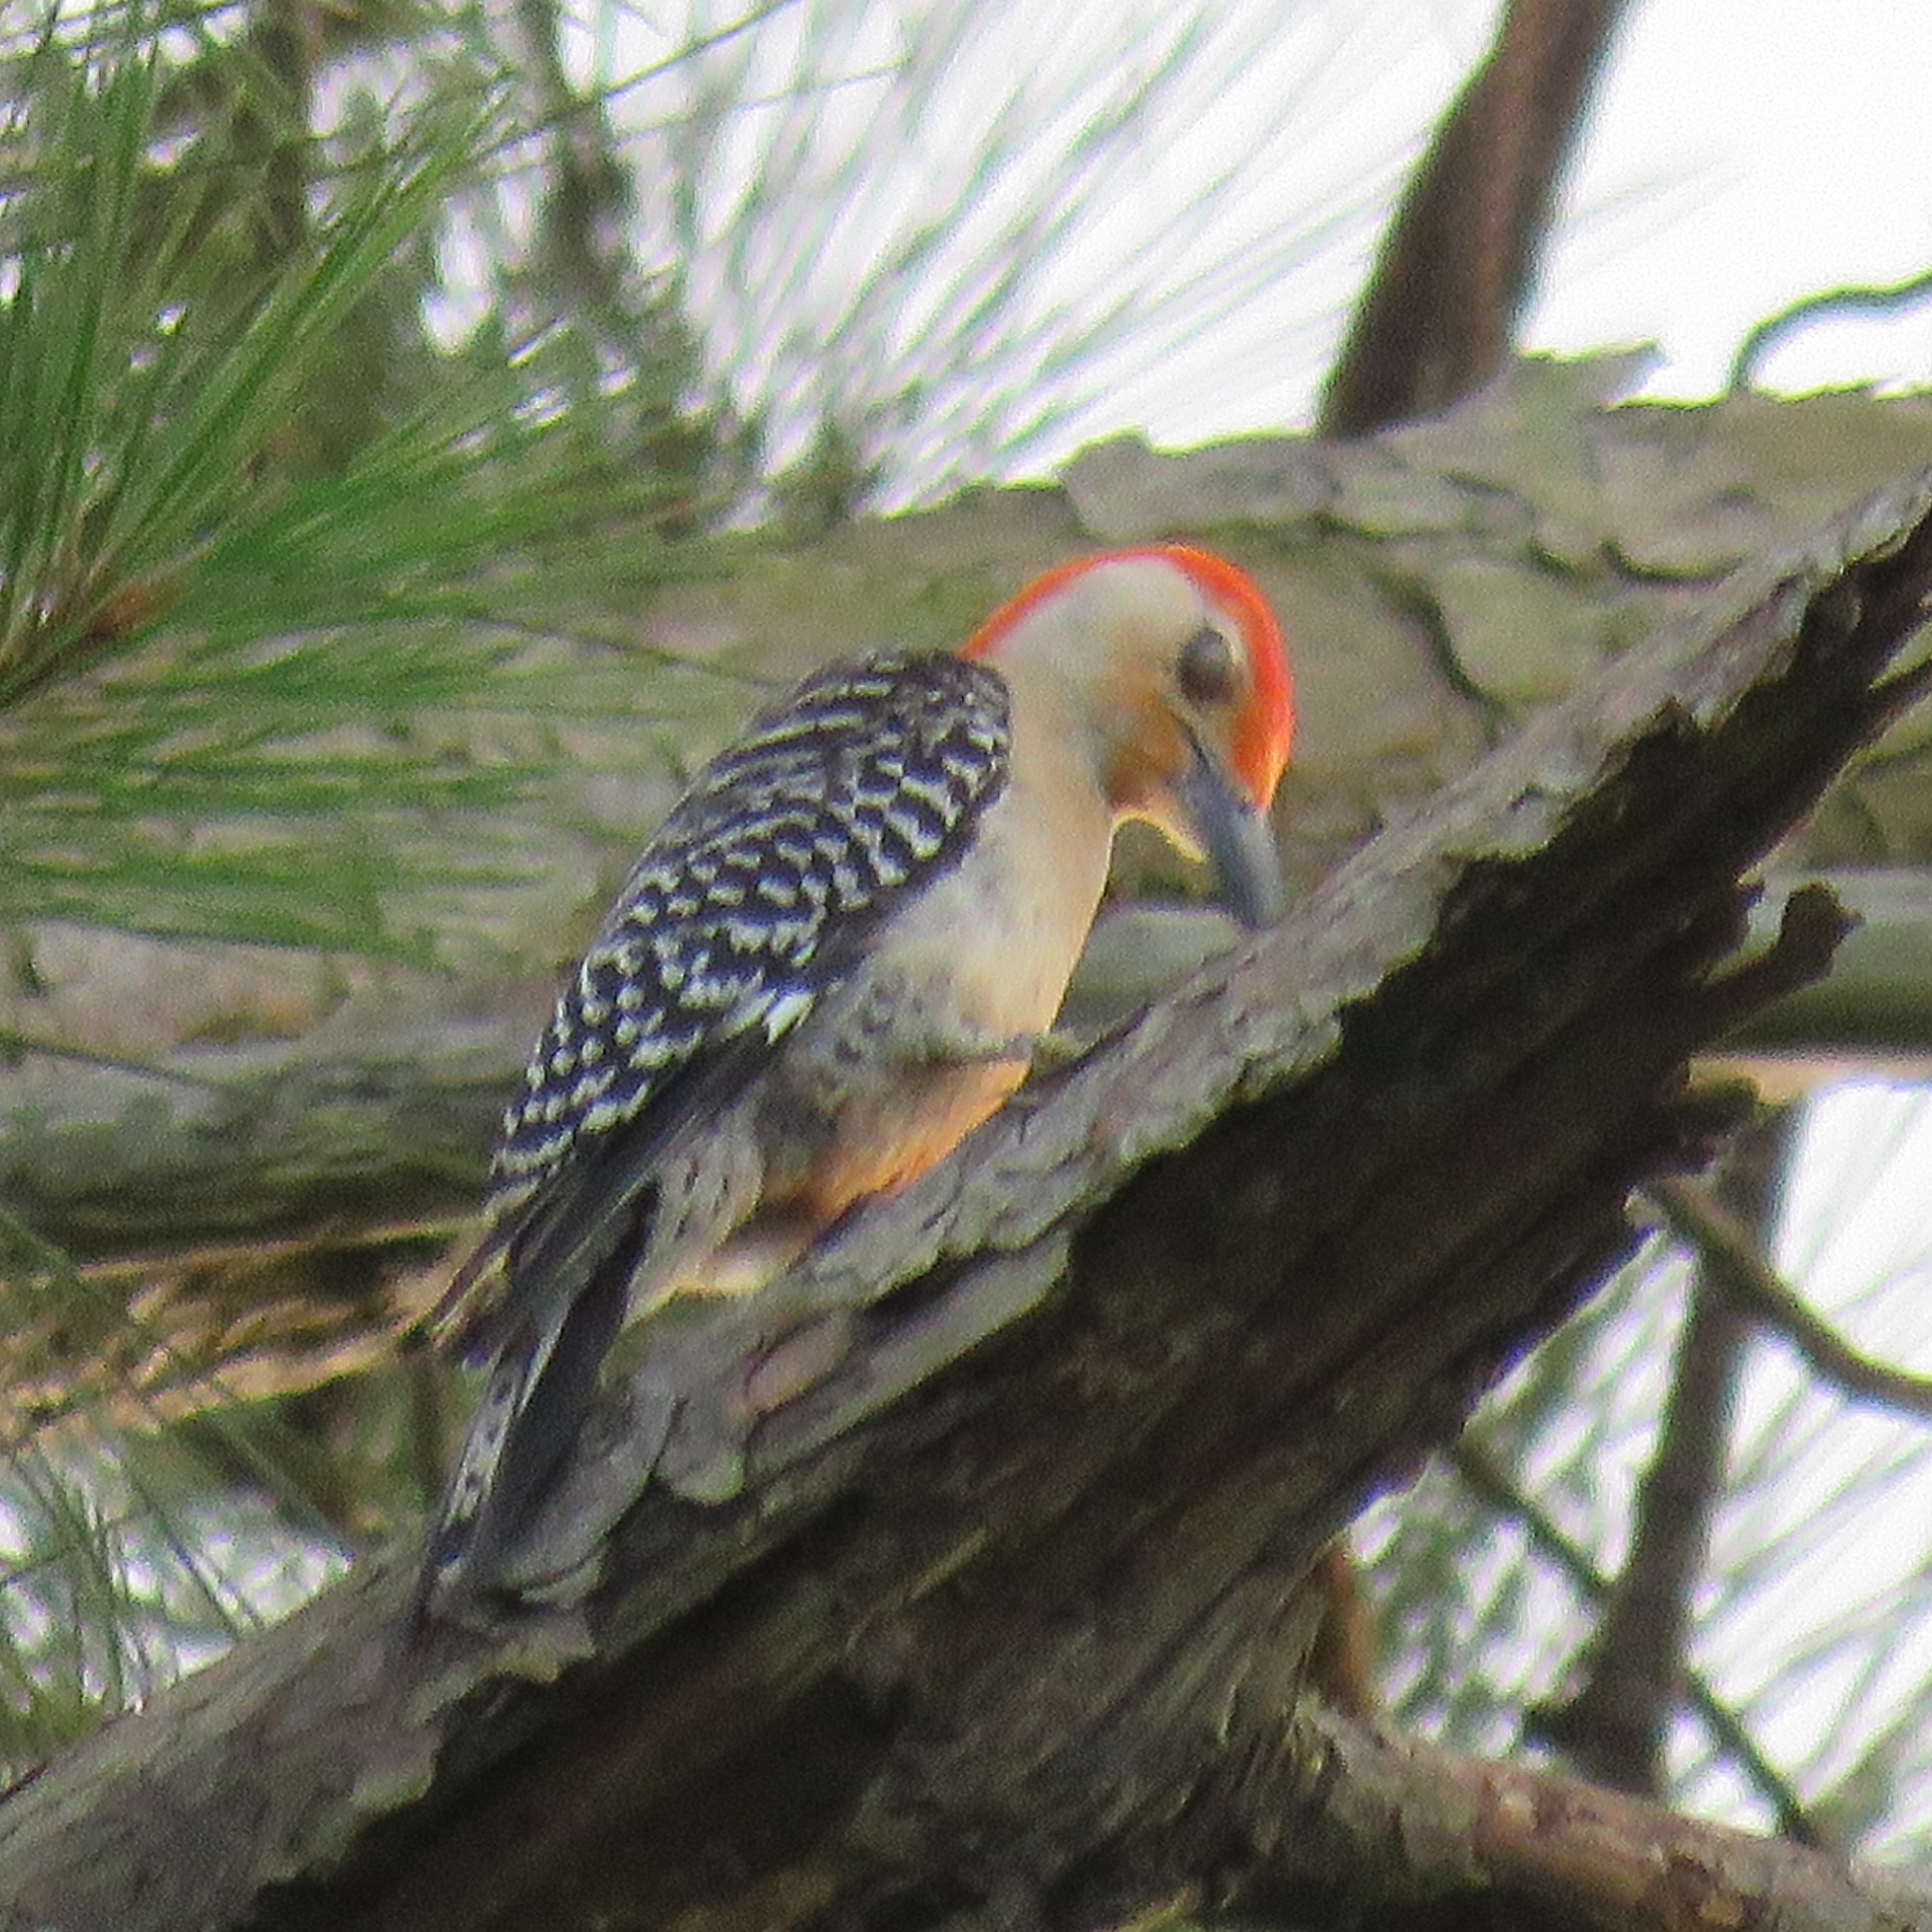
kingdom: Animalia
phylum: Chordata
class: Aves
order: Piciformes
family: Picidae
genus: Melanerpes
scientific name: Melanerpes carolinus
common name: Red-bellied woodpecker
